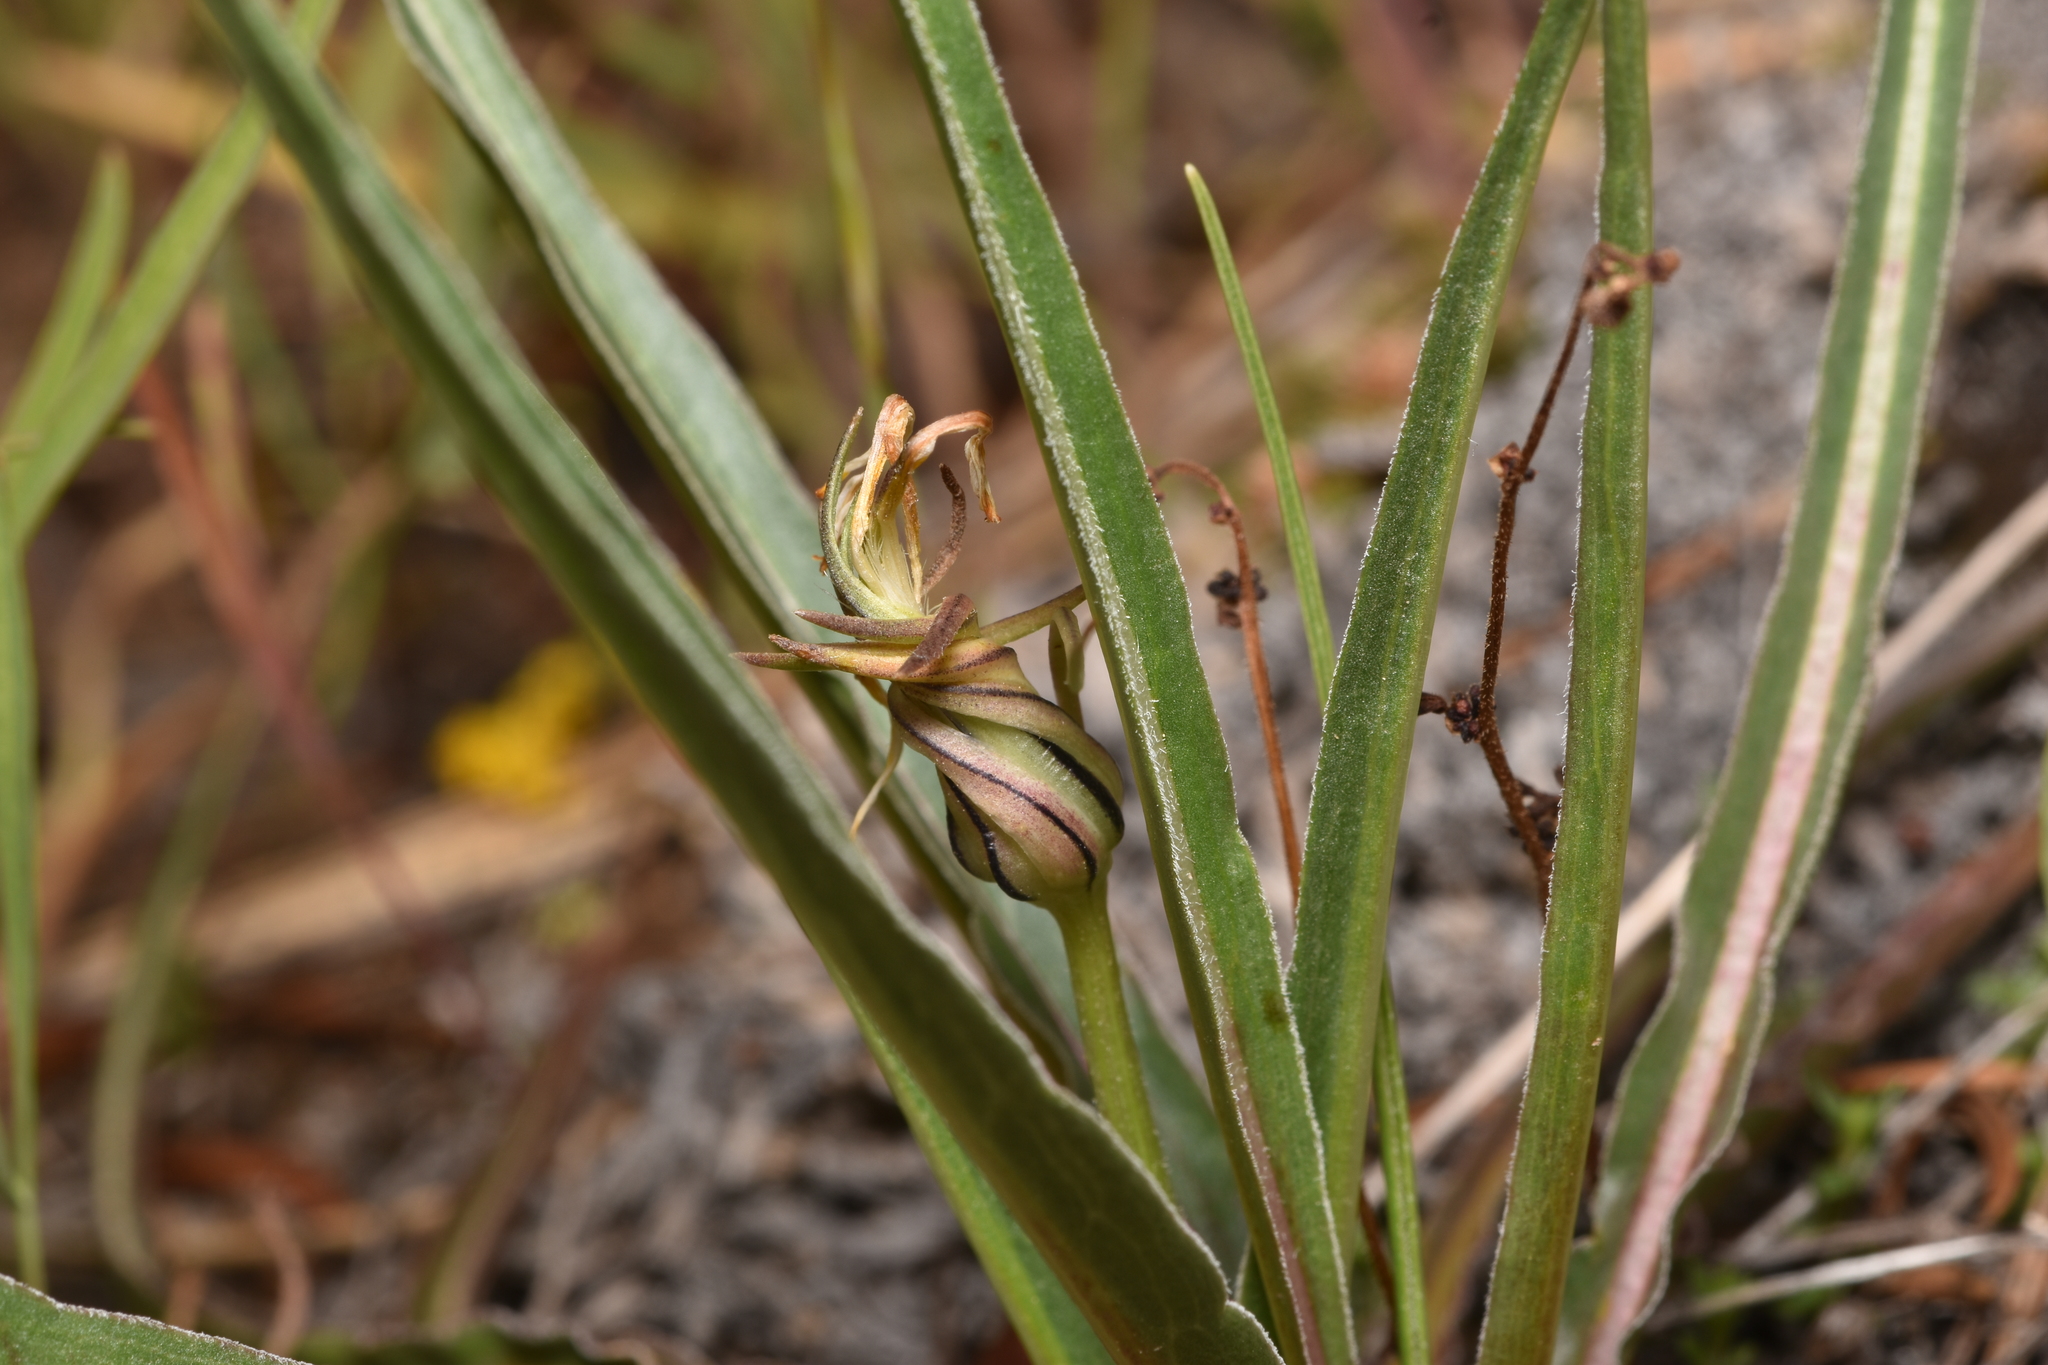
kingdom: Plantae
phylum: Tracheophyta
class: Magnoliopsida
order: Asterales
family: Asteraceae
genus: Microseris
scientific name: Microseris troximoides
